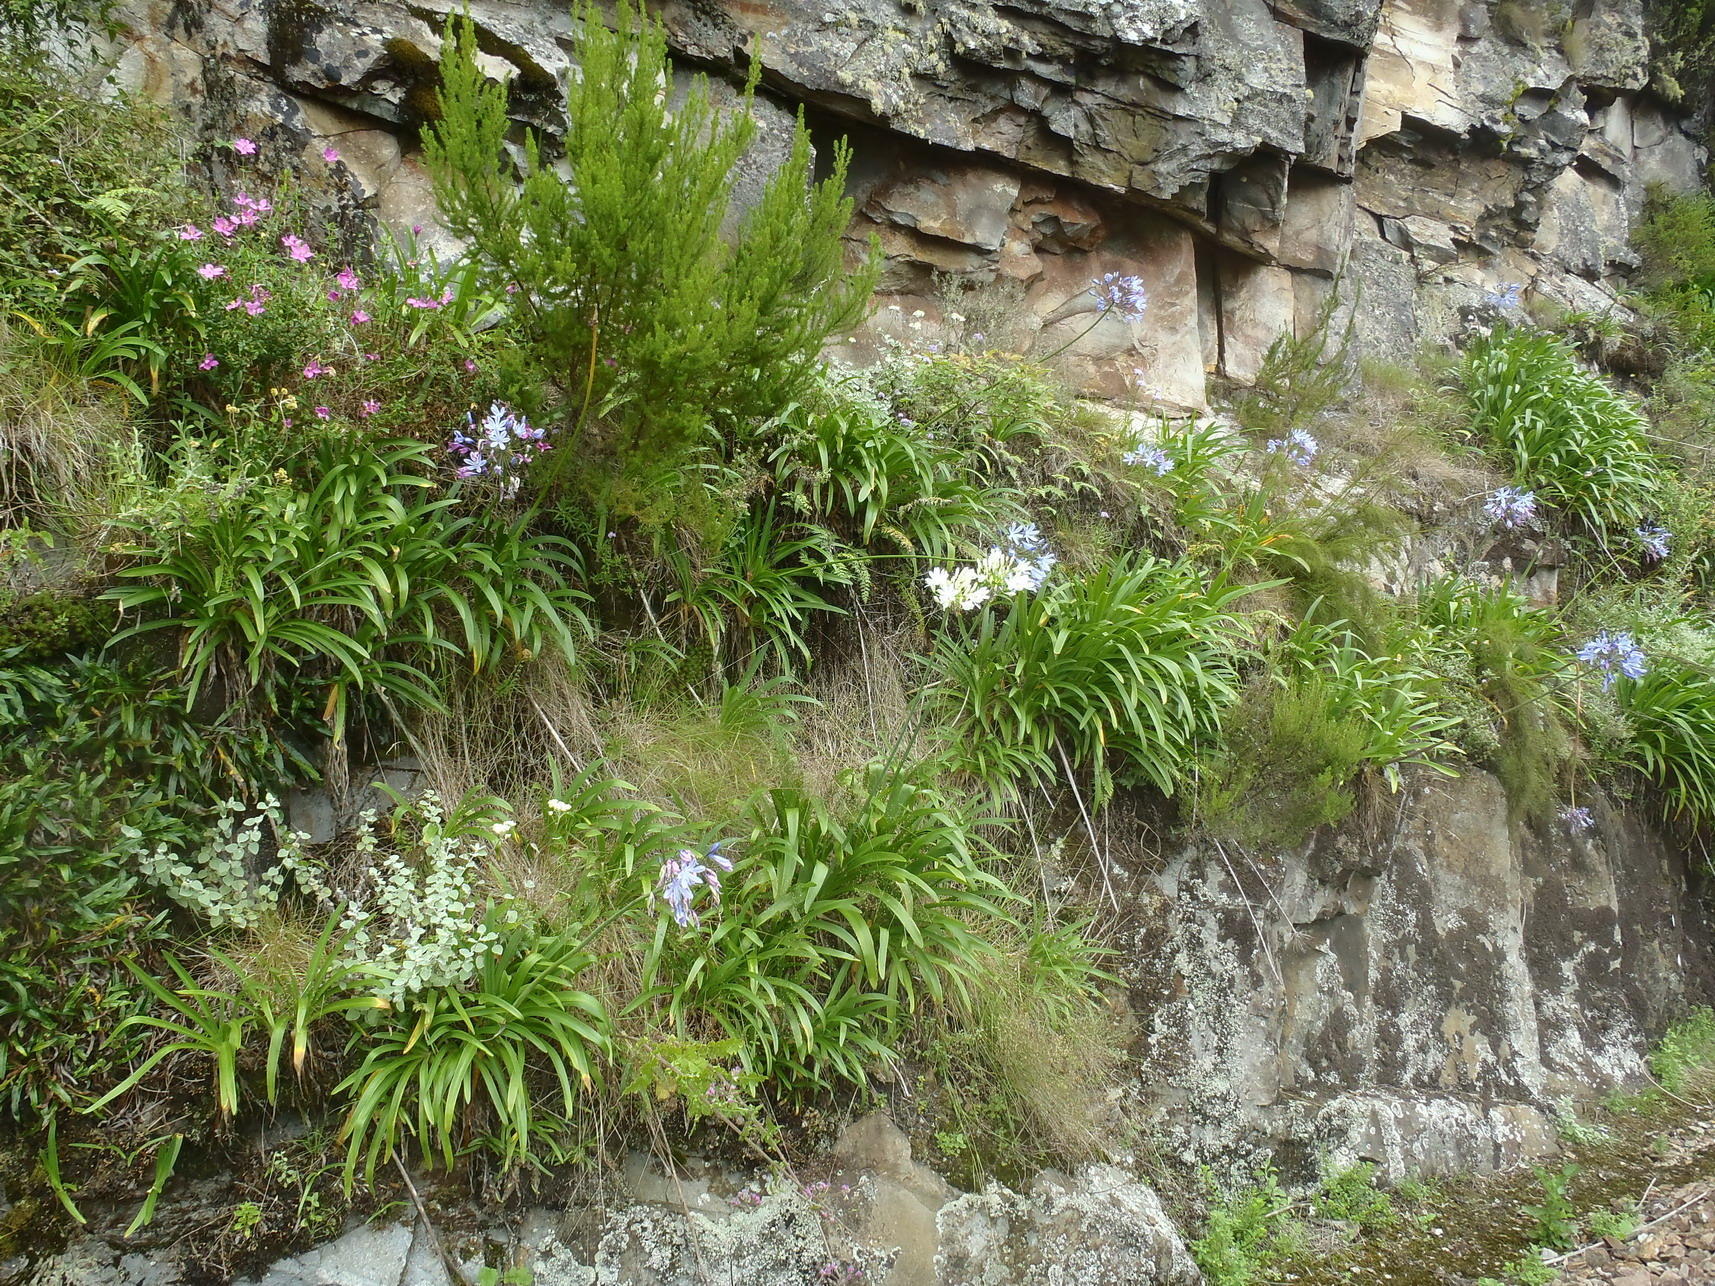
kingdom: Plantae
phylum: Tracheophyta
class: Liliopsida
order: Asparagales
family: Amaryllidaceae
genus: Agapanthus
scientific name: Agapanthus praecox
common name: African-lily
